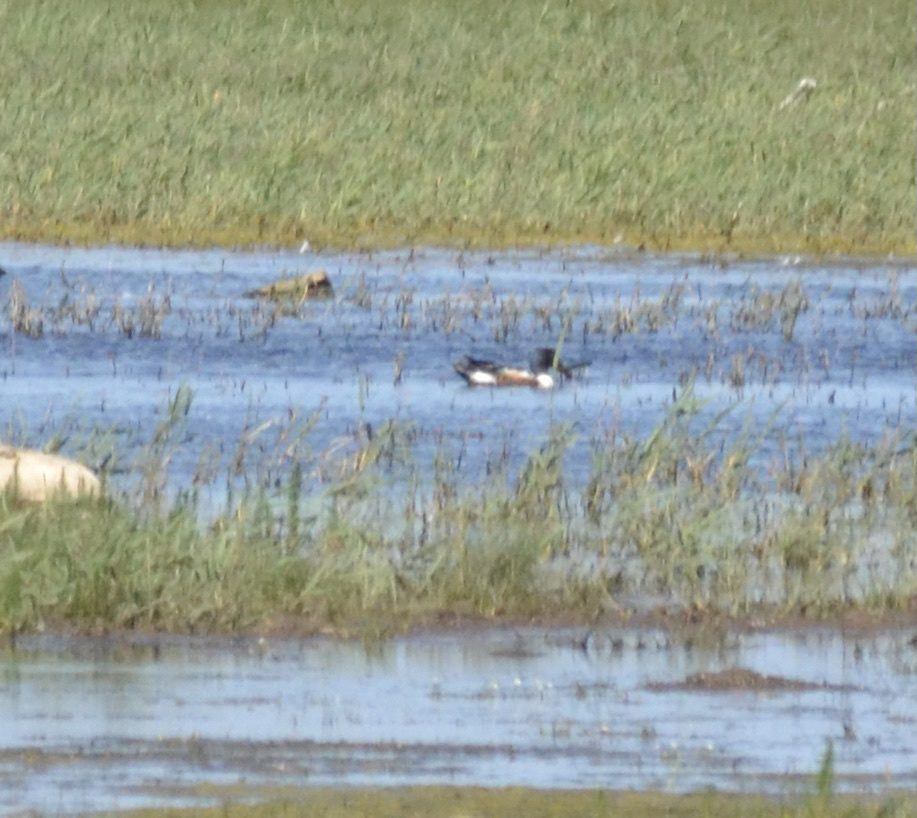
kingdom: Animalia
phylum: Chordata
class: Aves
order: Anseriformes
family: Anatidae
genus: Spatula
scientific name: Spatula clypeata
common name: Northern shoveler
